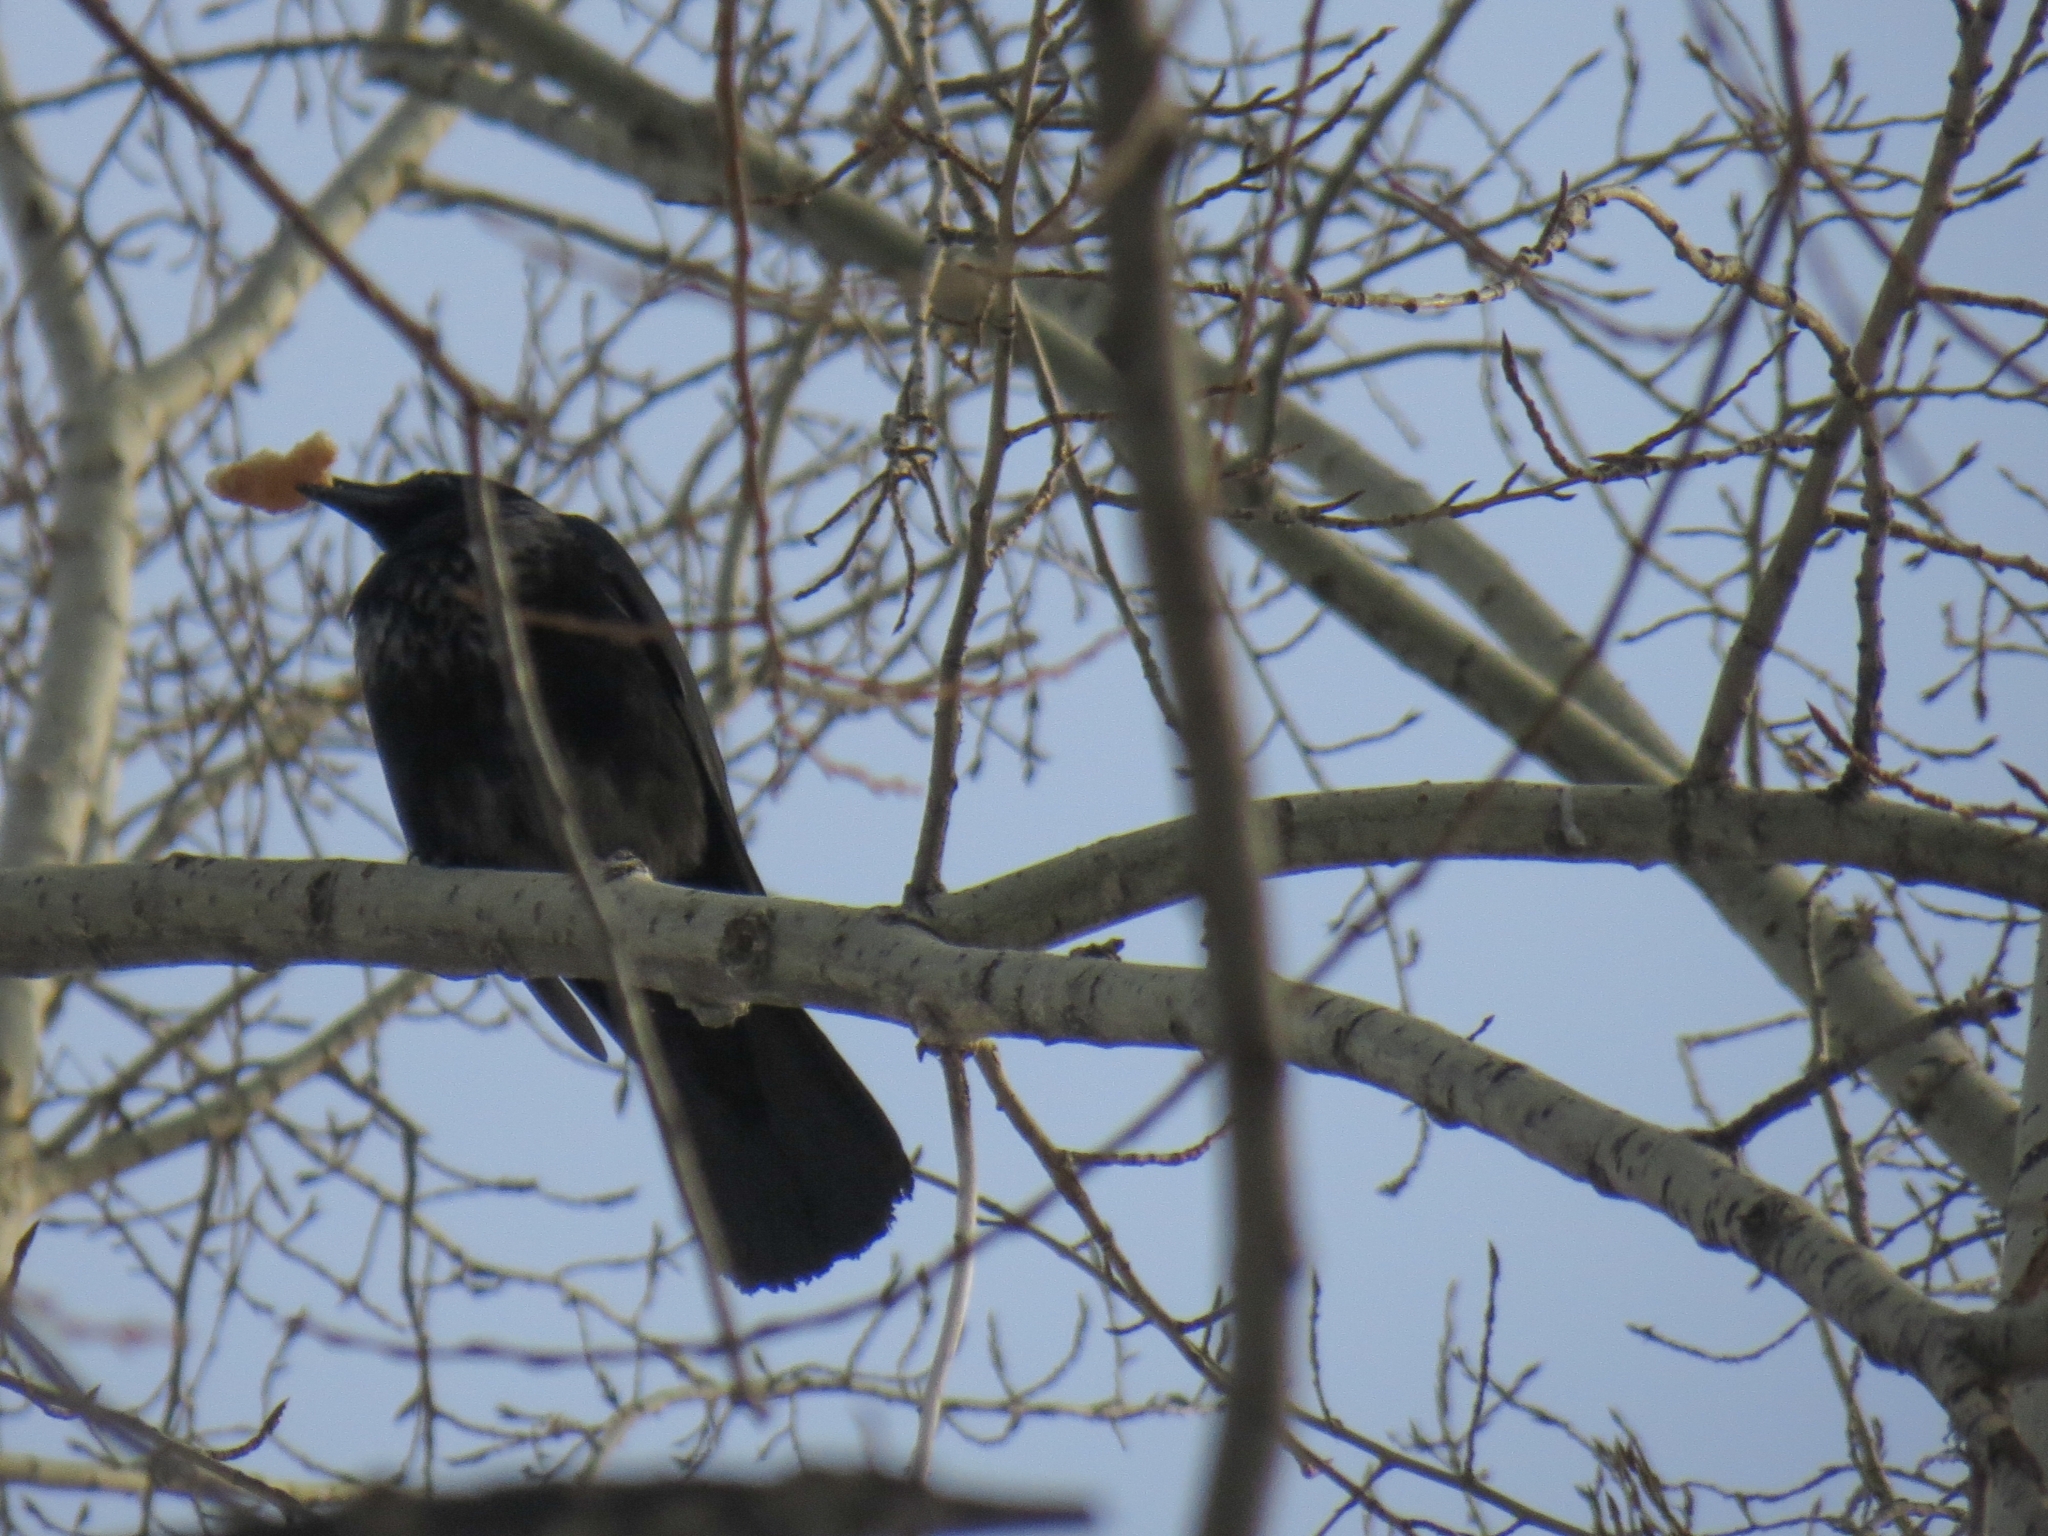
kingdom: Animalia
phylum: Chordata
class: Aves
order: Passeriformes
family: Corvidae
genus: Corvus
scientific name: Corvus
